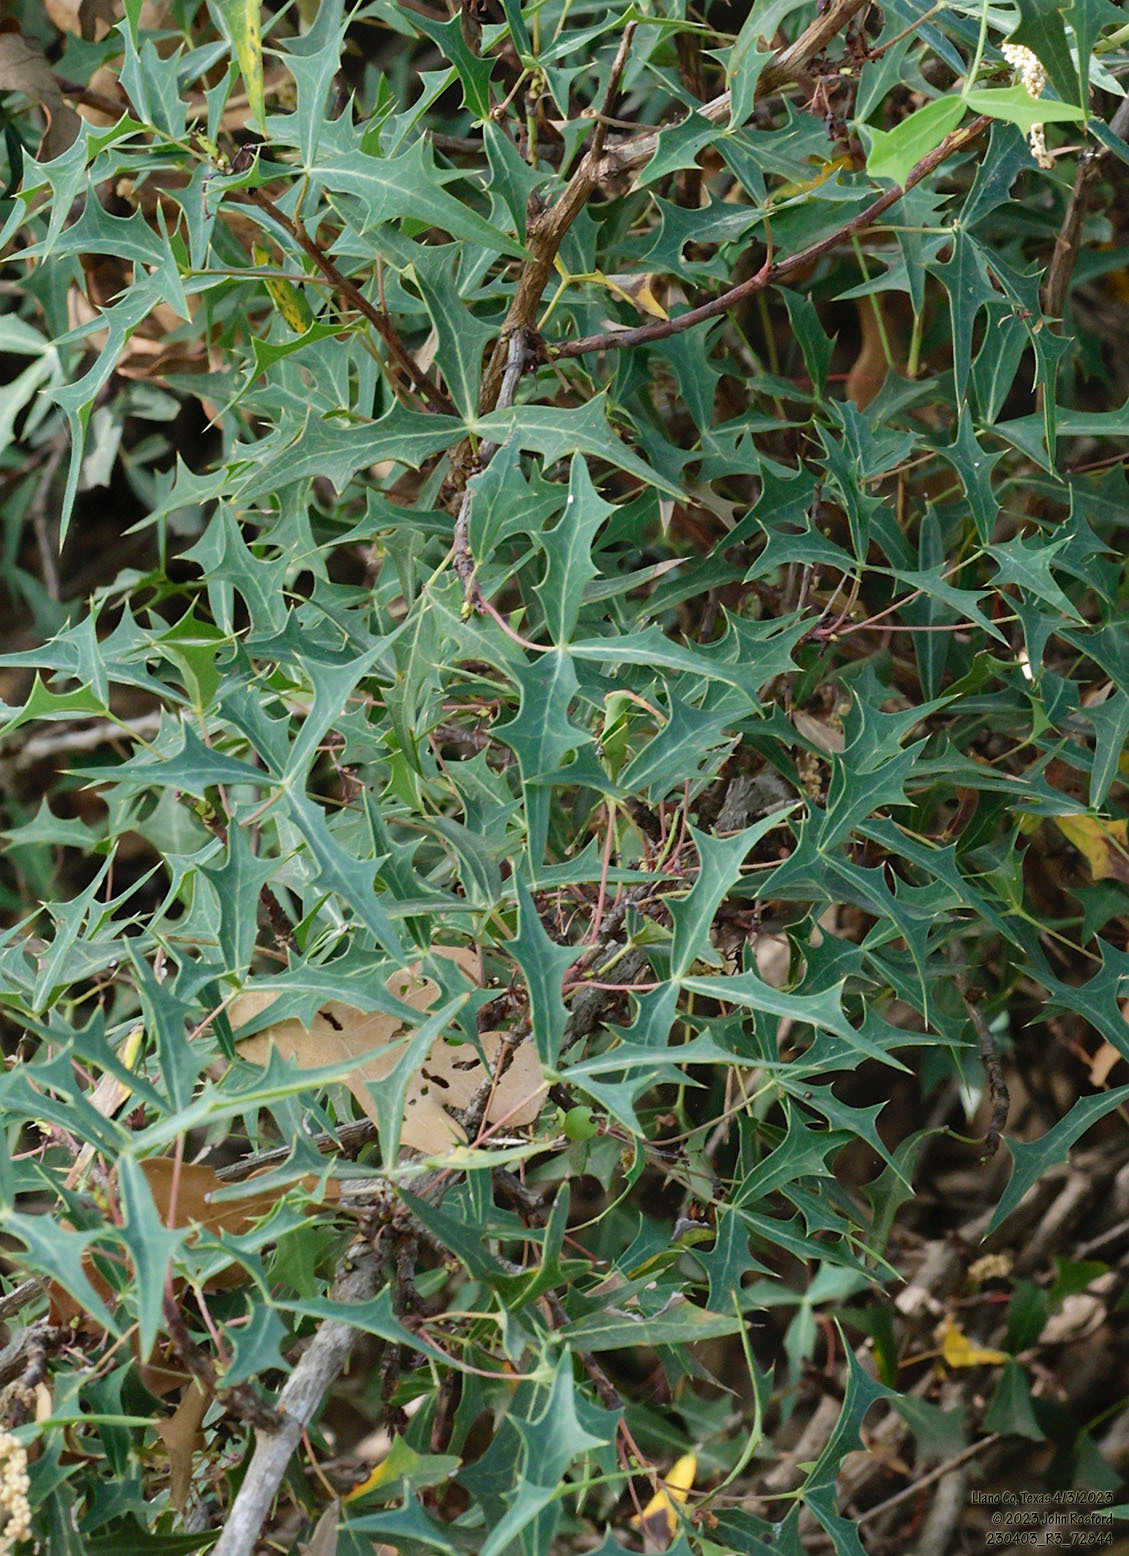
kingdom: Plantae
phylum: Tracheophyta
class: Magnoliopsida
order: Ranunculales
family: Berberidaceae
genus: Alloberberis
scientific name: Alloberberis trifoliolata
